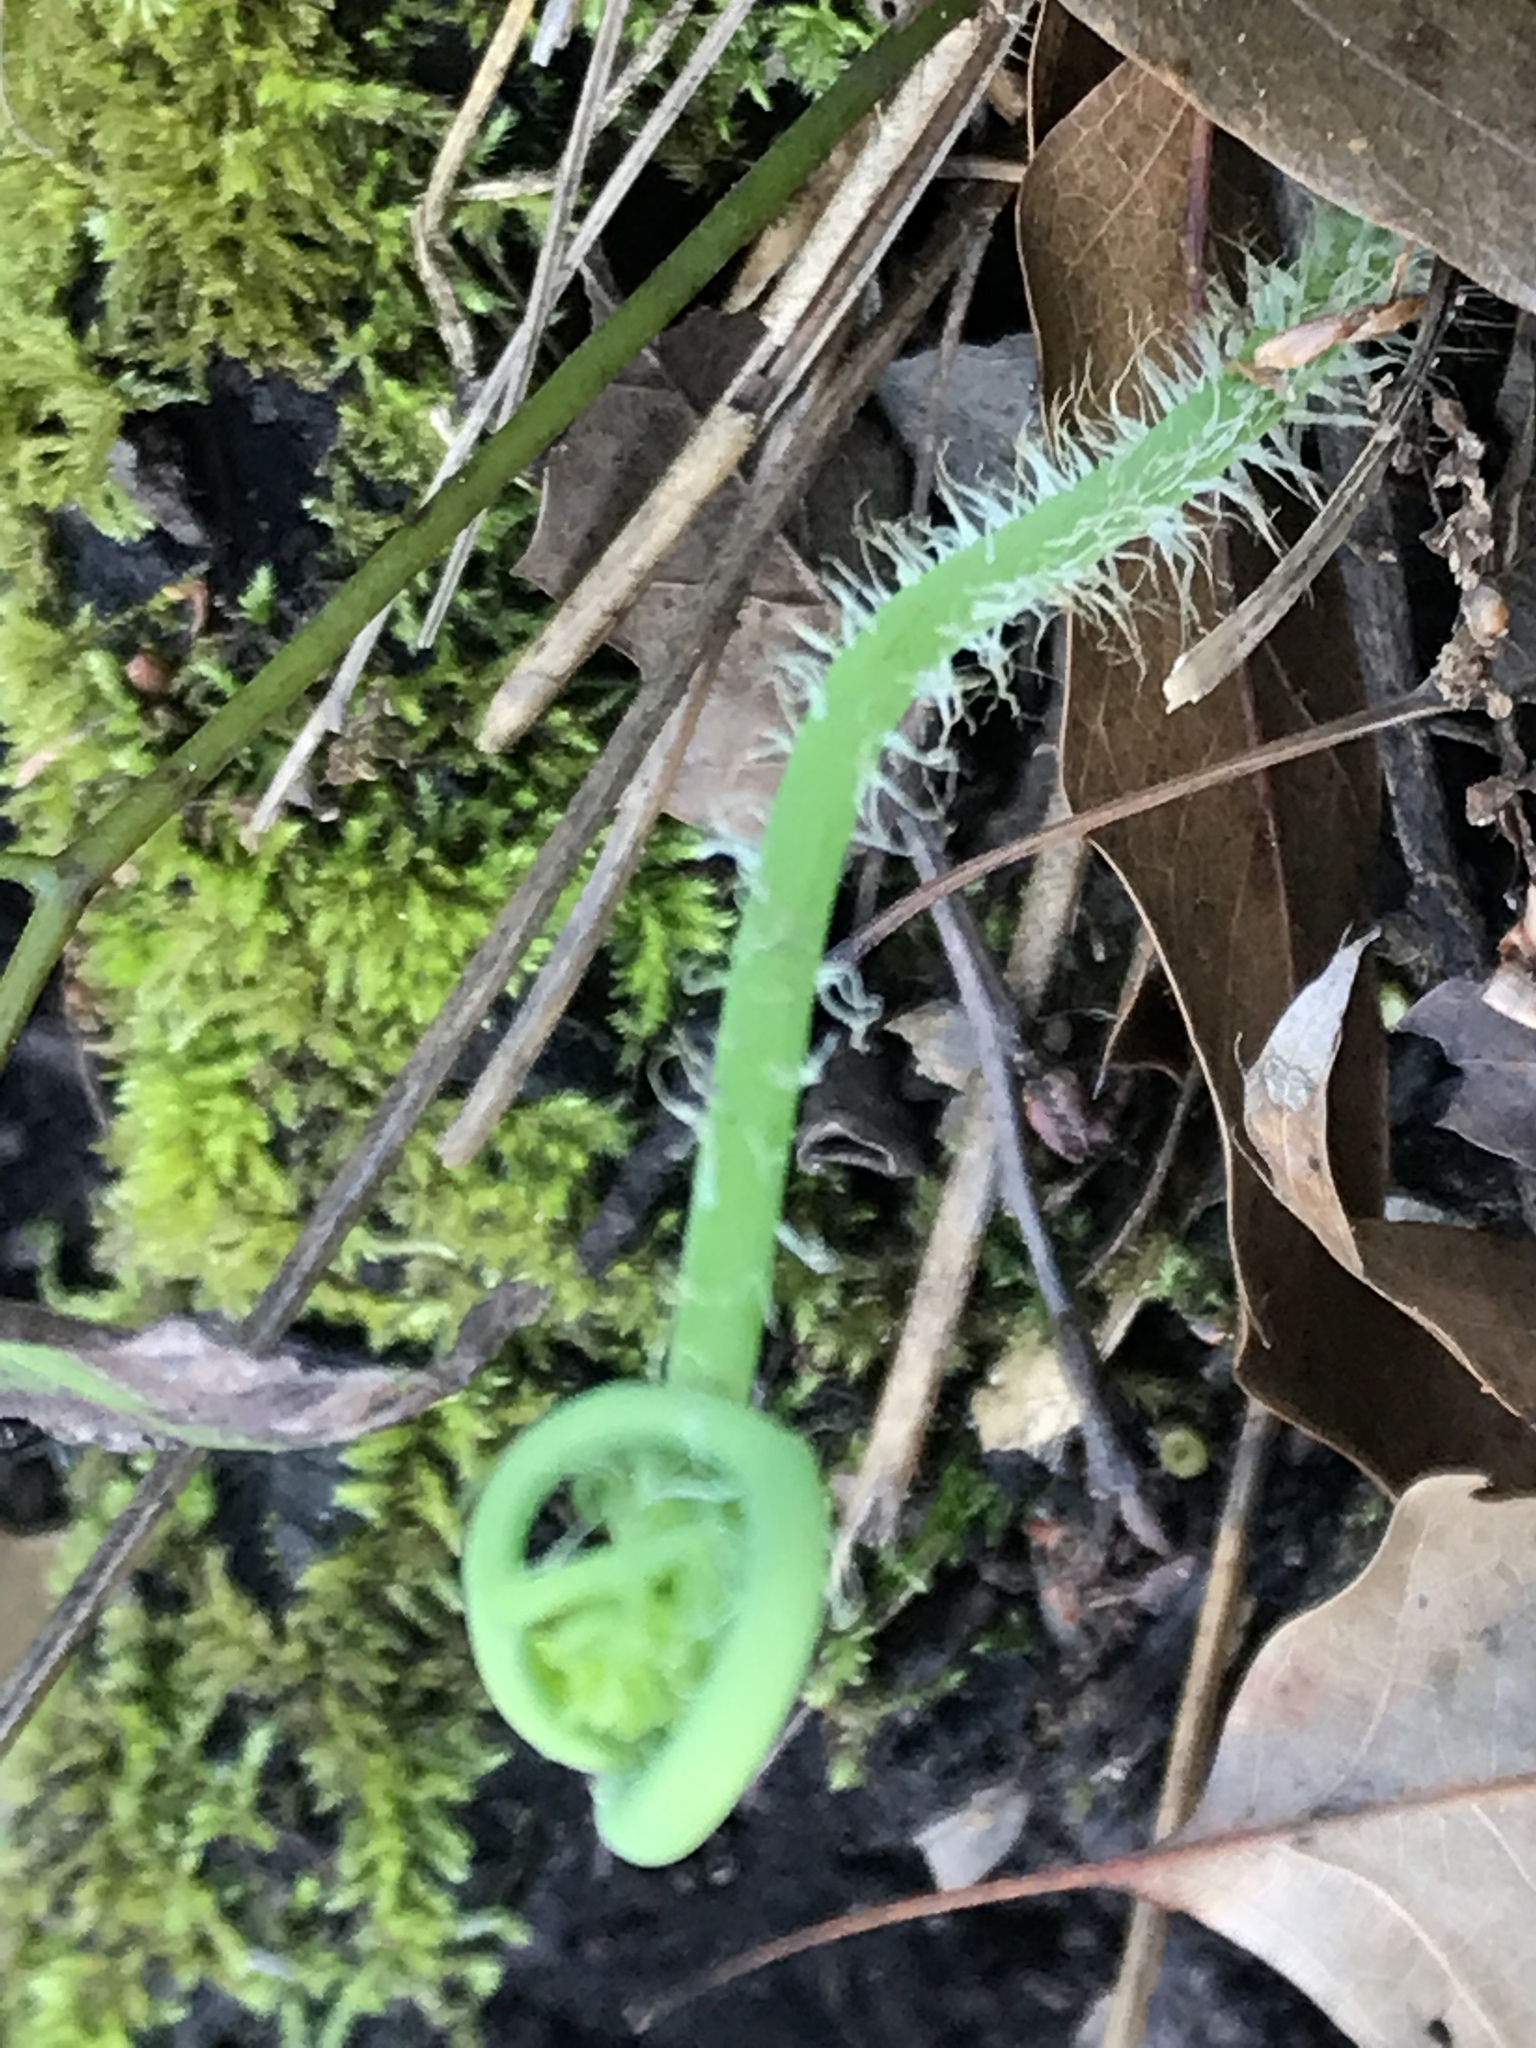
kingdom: Plantae
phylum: Tracheophyta
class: Polypodiopsida
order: Polypodiales
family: Pteridaceae
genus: Llavea
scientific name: Llavea cordifolia
